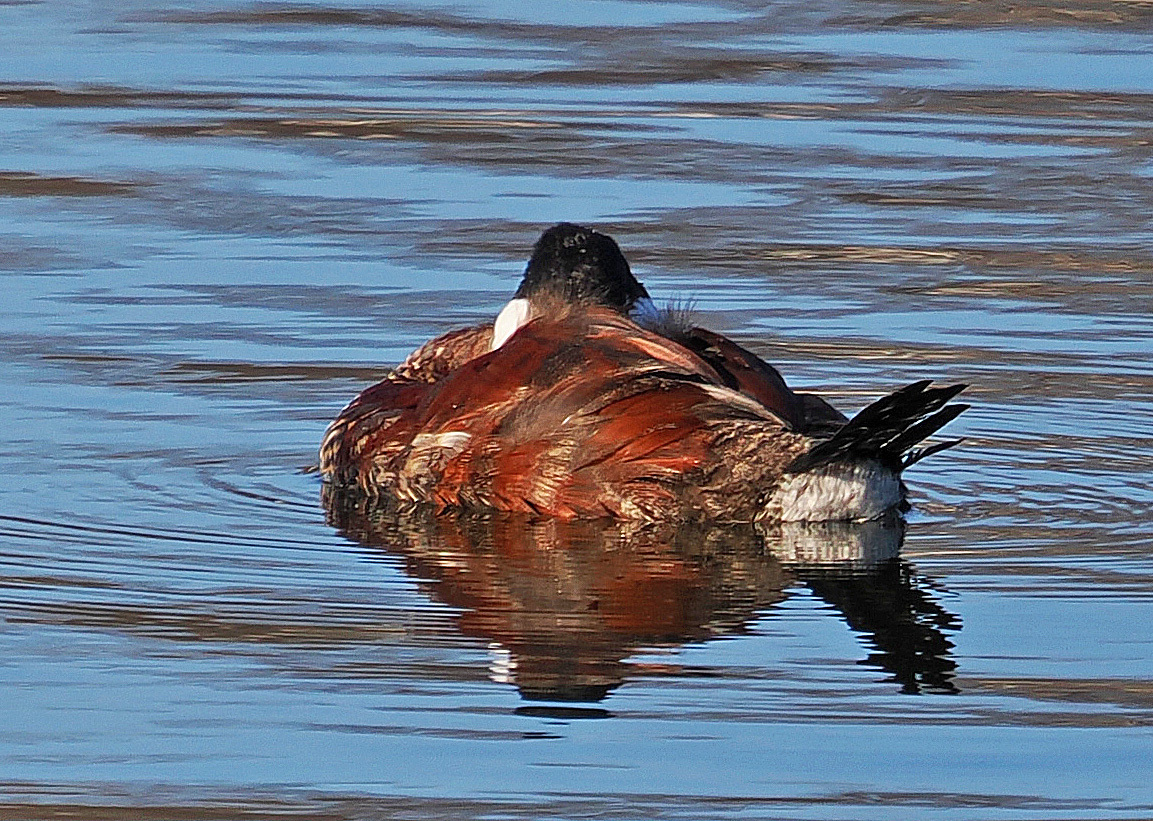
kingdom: Animalia
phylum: Chordata
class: Aves
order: Anseriformes
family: Anatidae
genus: Oxyura
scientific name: Oxyura jamaicensis
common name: Ruddy duck
